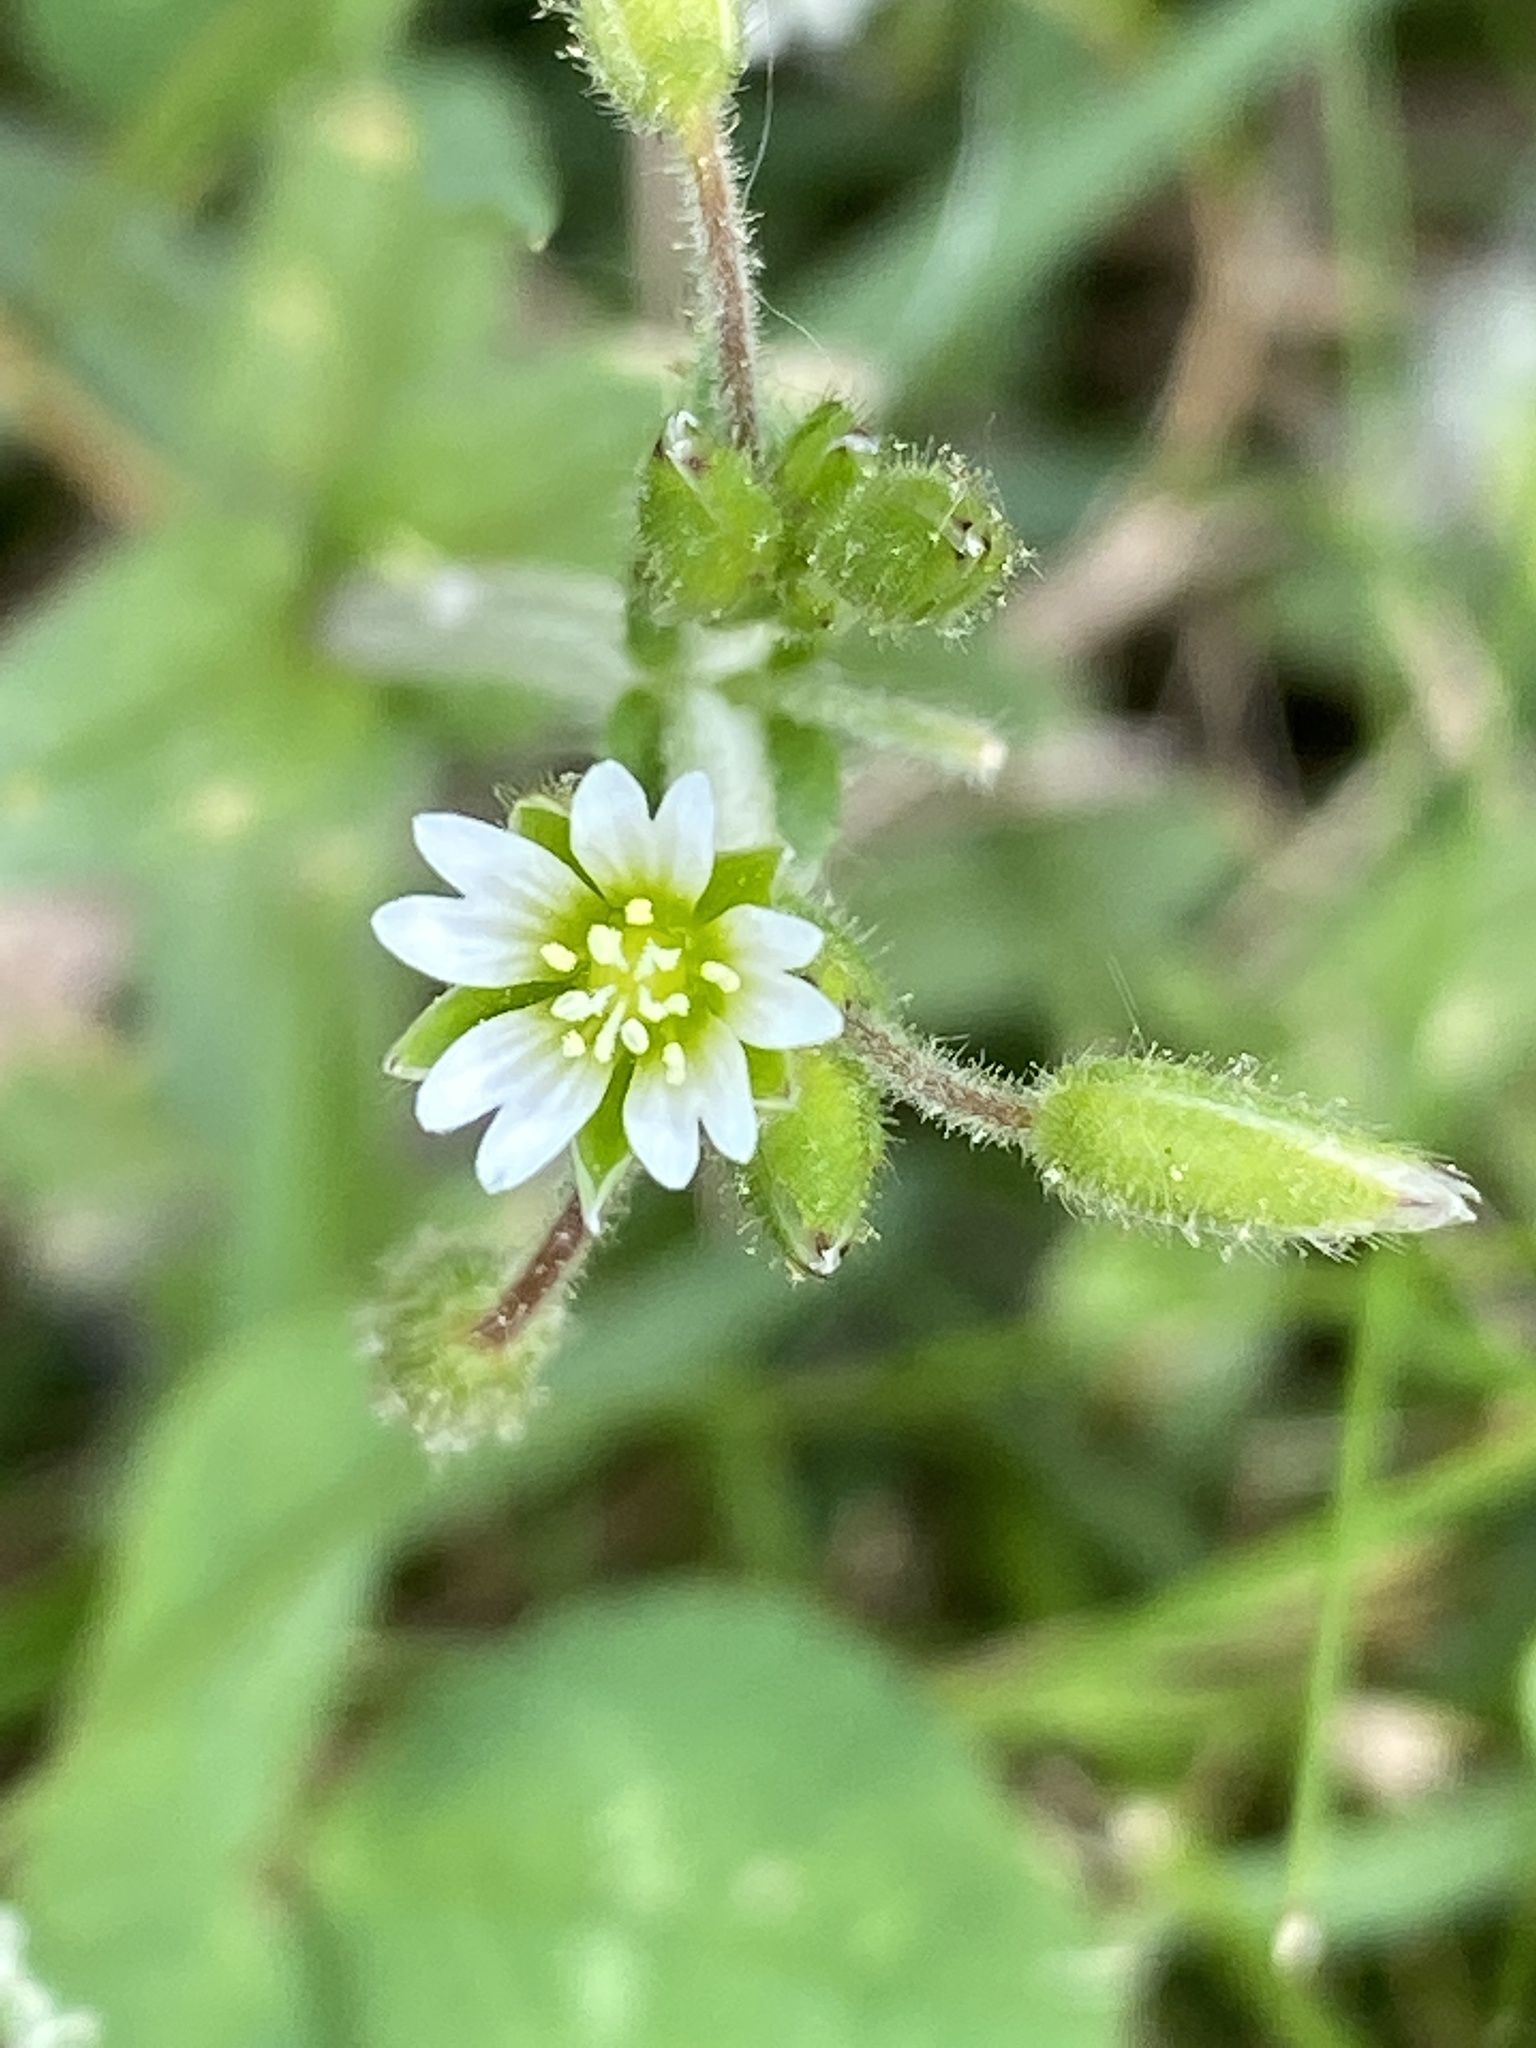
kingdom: Plantae
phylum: Tracheophyta
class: Magnoliopsida
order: Caryophyllales
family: Caryophyllaceae
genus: Cerastium
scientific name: Cerastium fontanum
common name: Common mouse-ear
